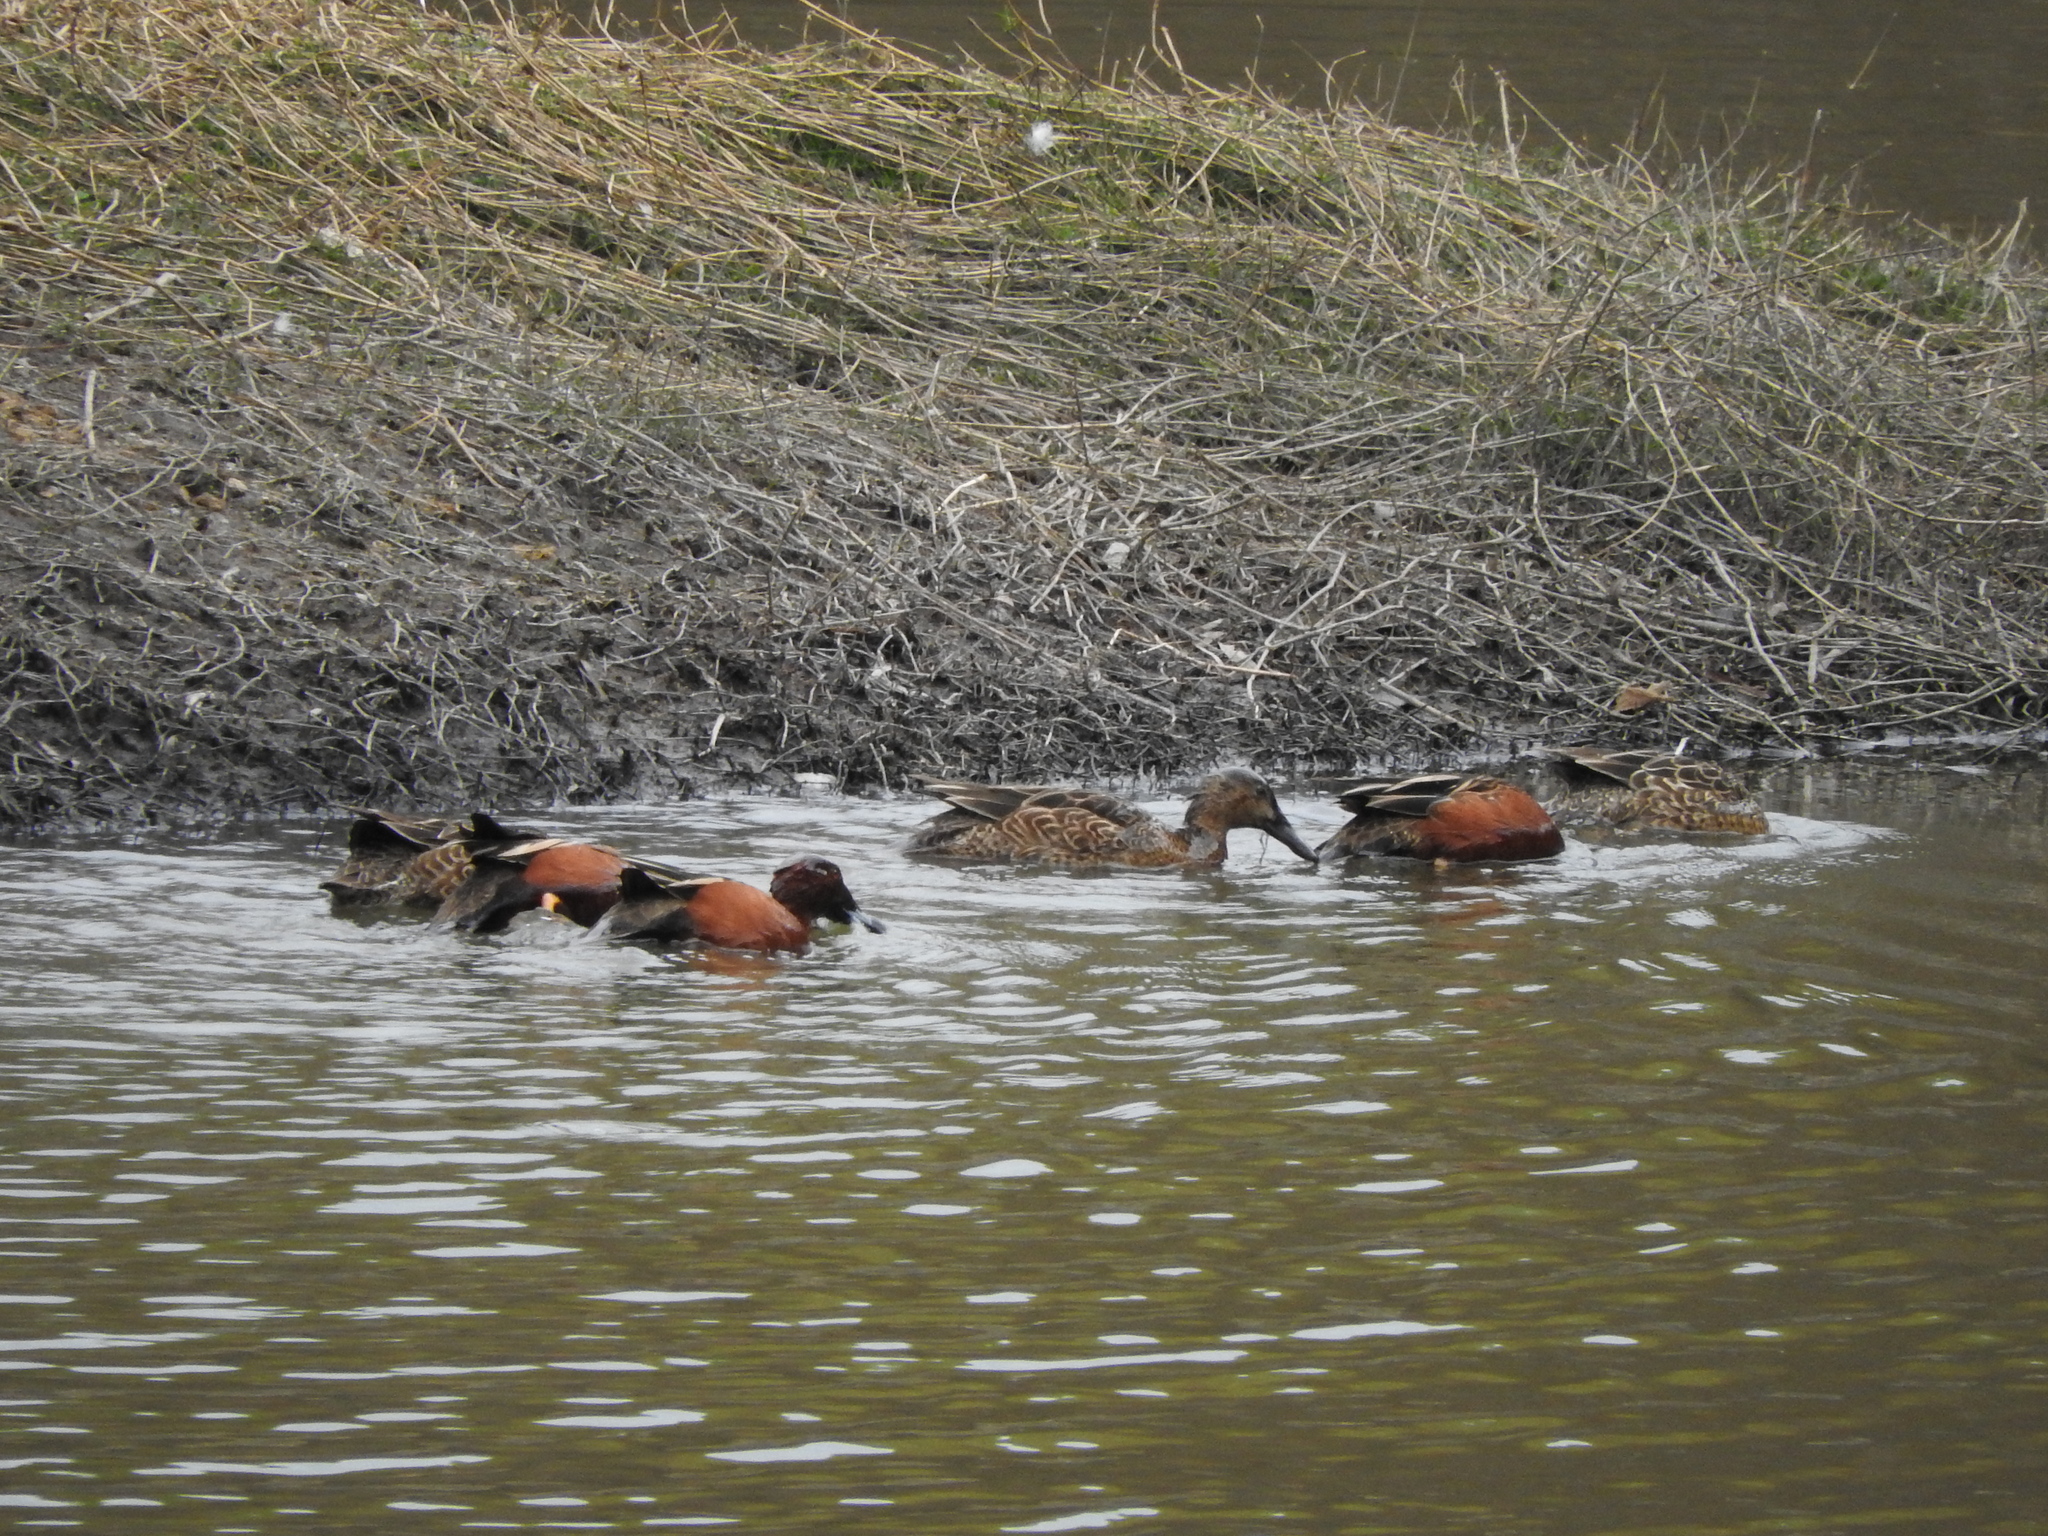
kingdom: Animalia
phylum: Chordata
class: Aves
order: Anseriformes
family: Anatidae
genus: Spatula
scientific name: Spatula cyanoptera
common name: Cinnamon teal
